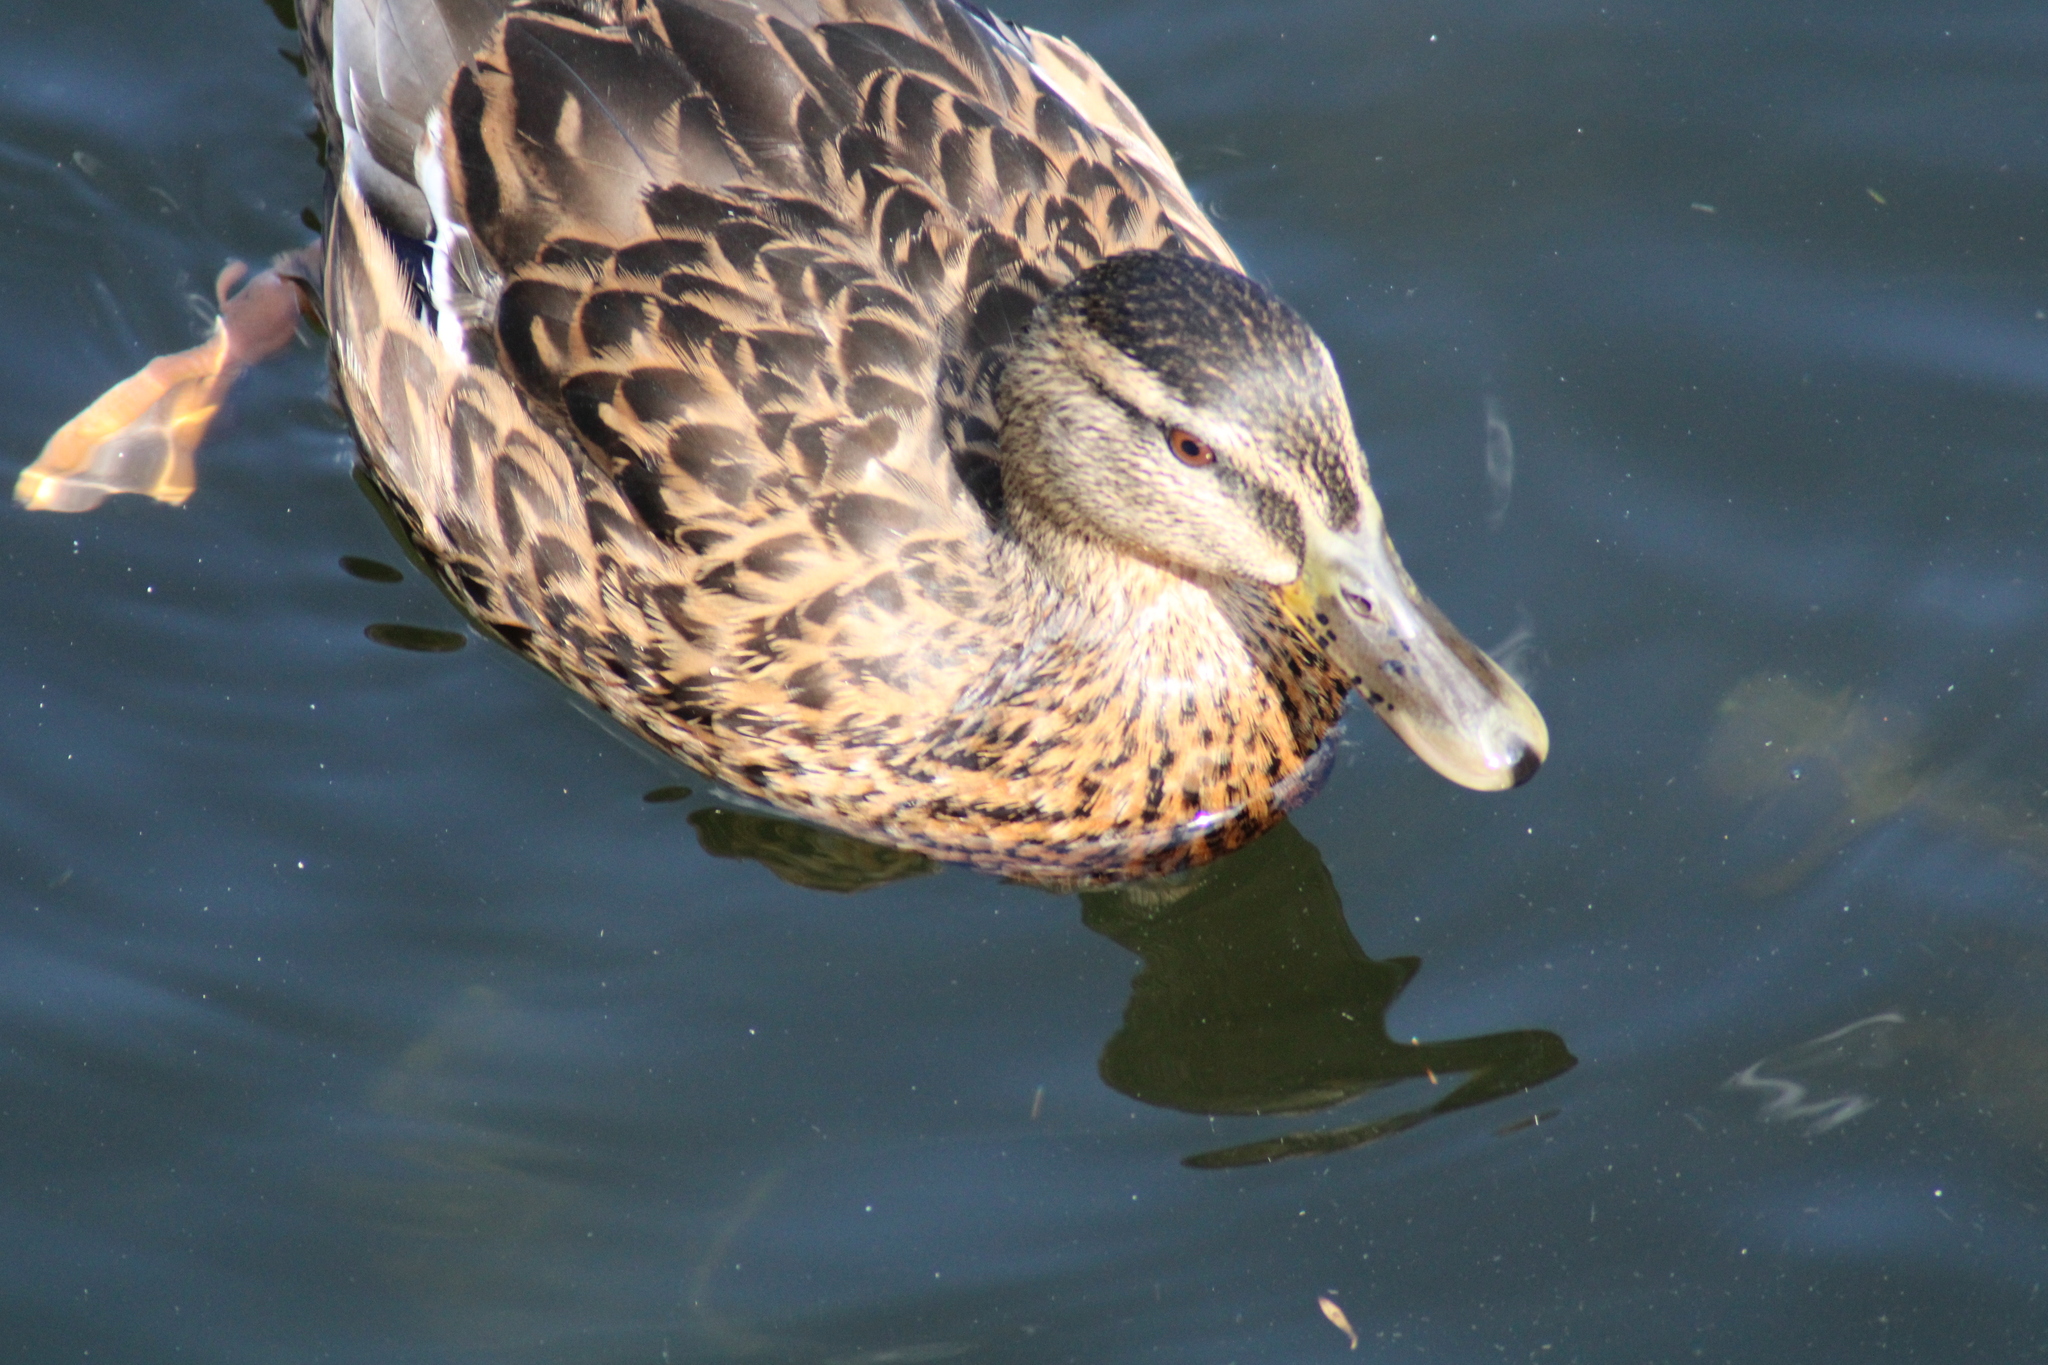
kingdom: Animalia
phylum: Chordata
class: Aves
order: Anseriformes
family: Anatidae
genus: Anas
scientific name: Anas platyrhynchos
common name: Mallard
